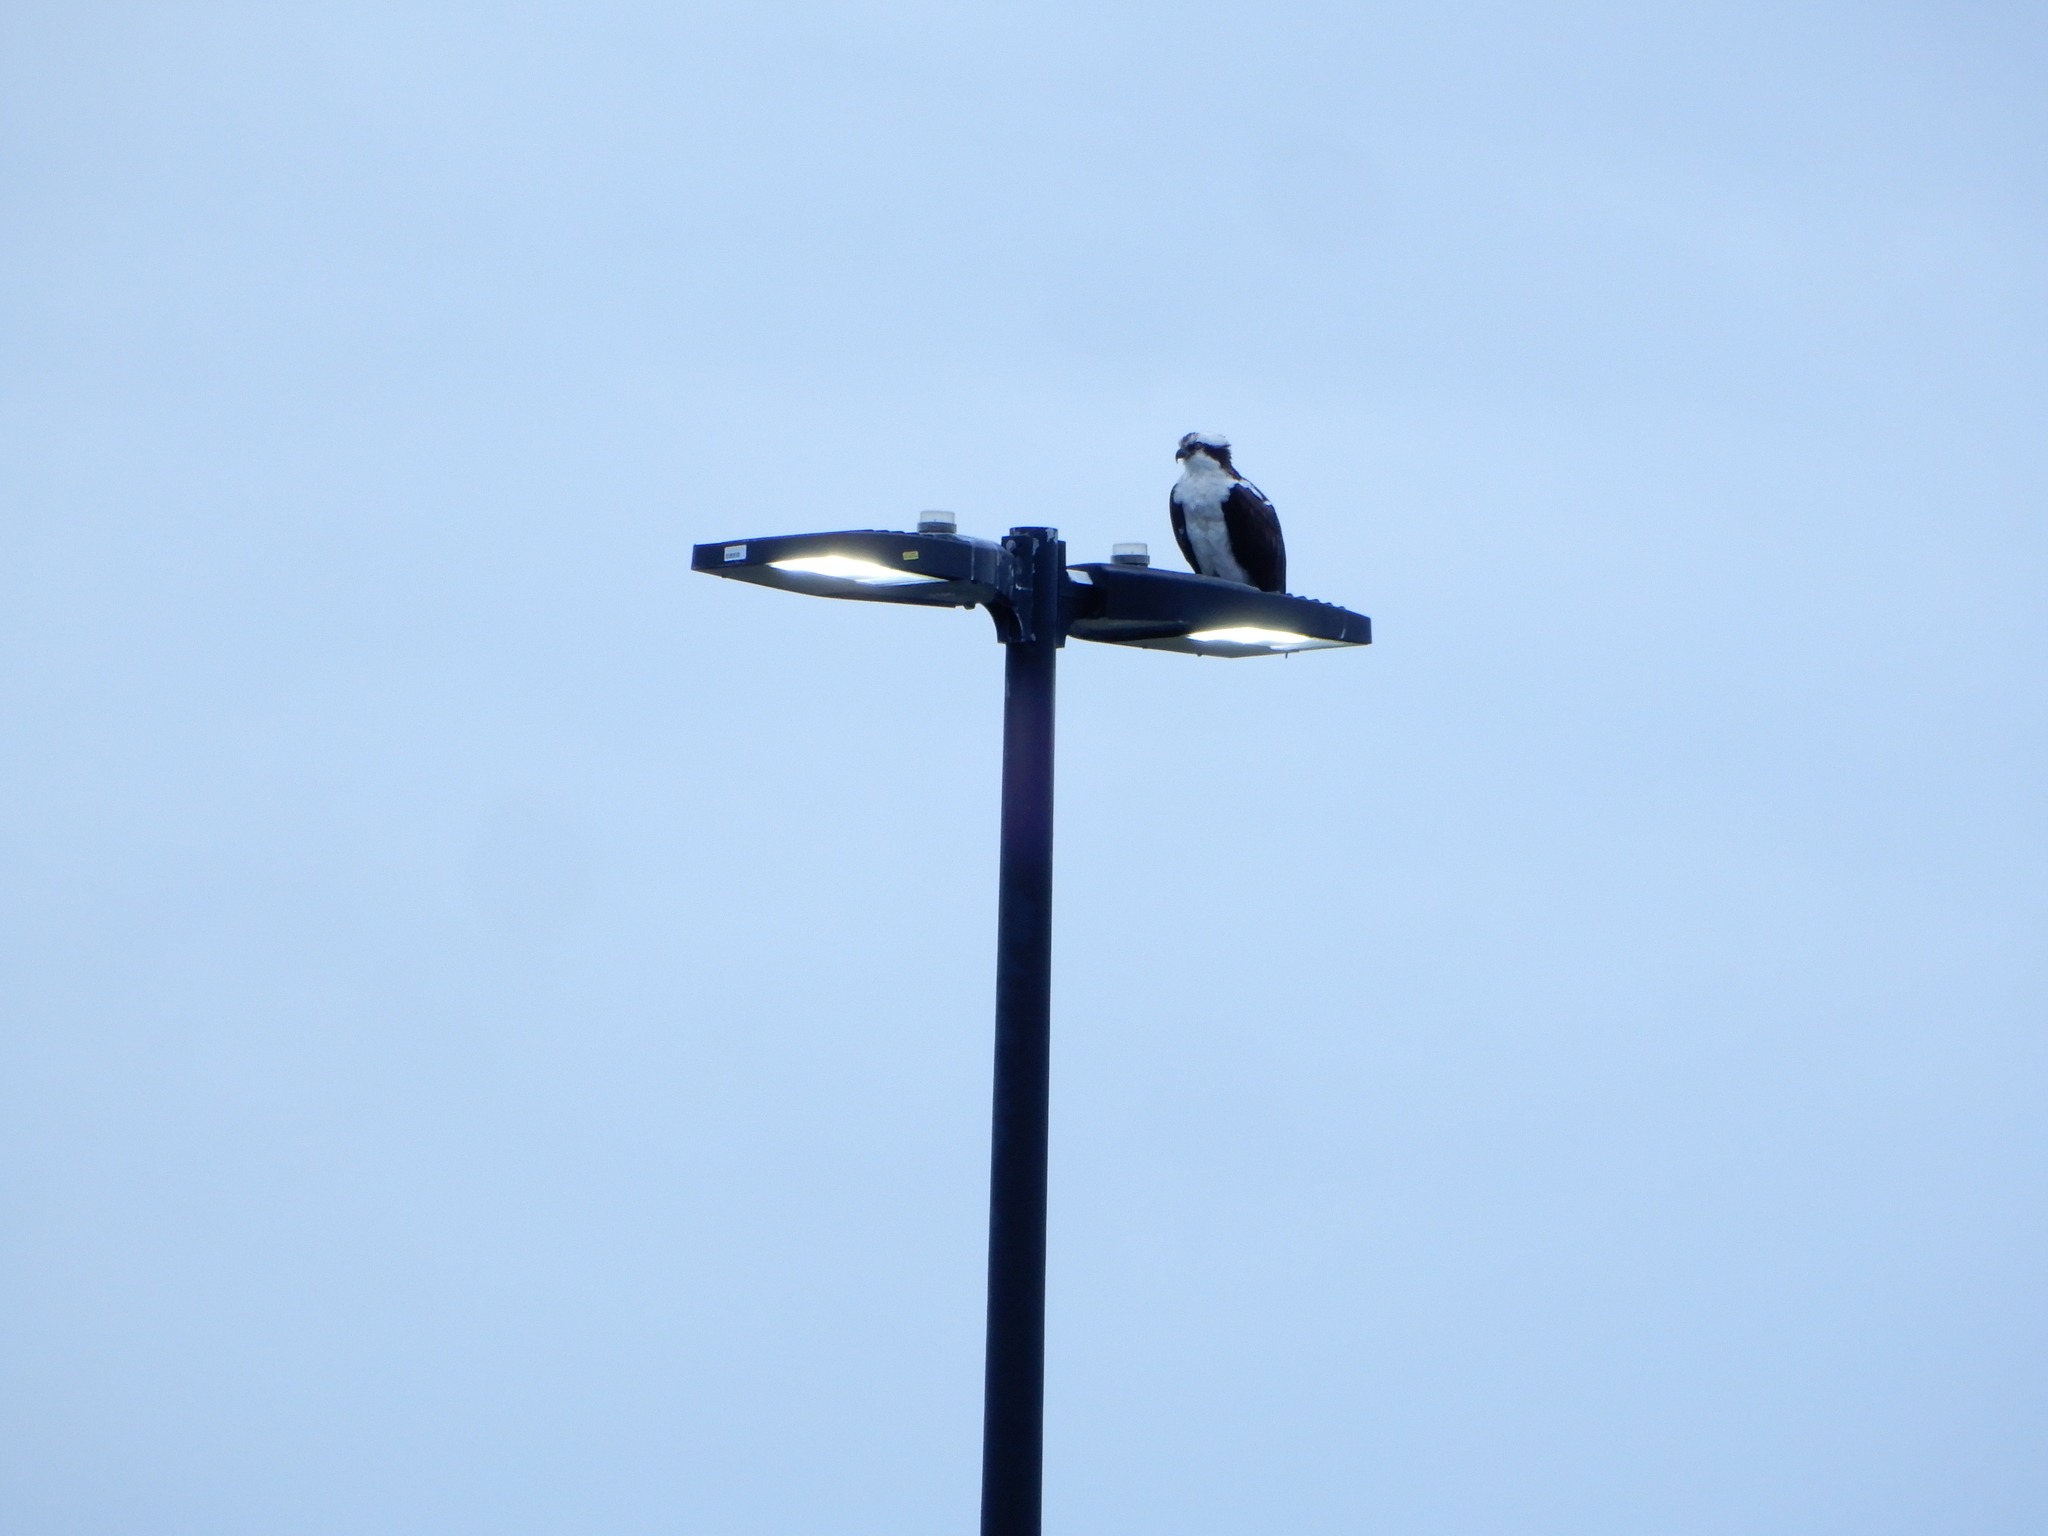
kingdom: Animalia
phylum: Chordata
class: Aves
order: Accipitriformes
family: Pandionidae
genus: Pandion
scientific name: Pandion haliaetus
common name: Osprey
